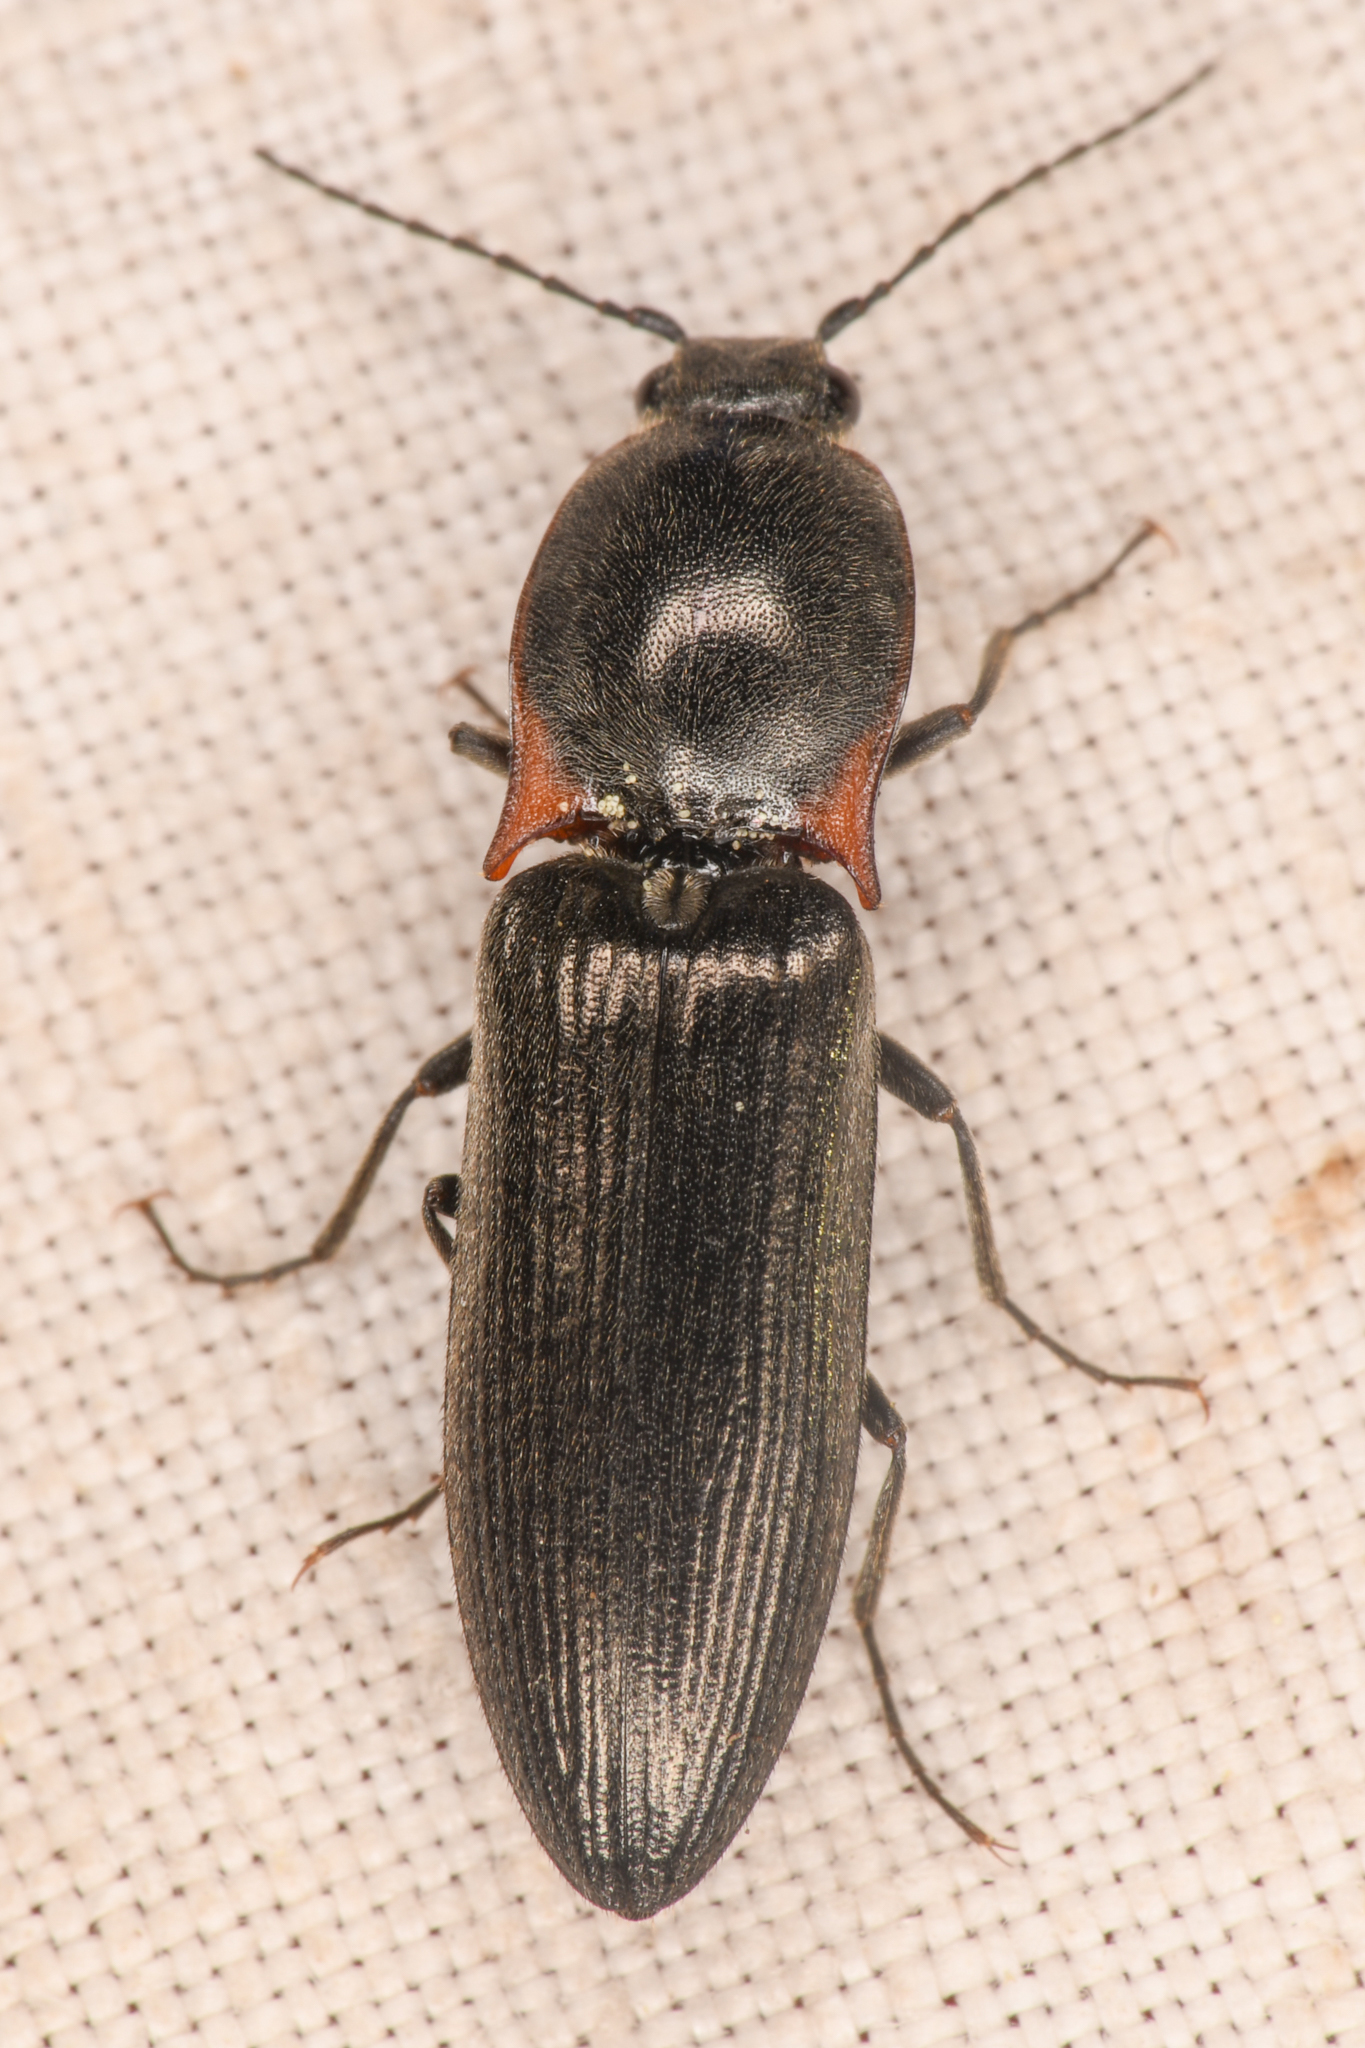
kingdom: Animalia
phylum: Arthropoda
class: Insecta
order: Coleoptera
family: Elateridae
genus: Acteniceromorphus
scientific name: Acteniceromorphus
